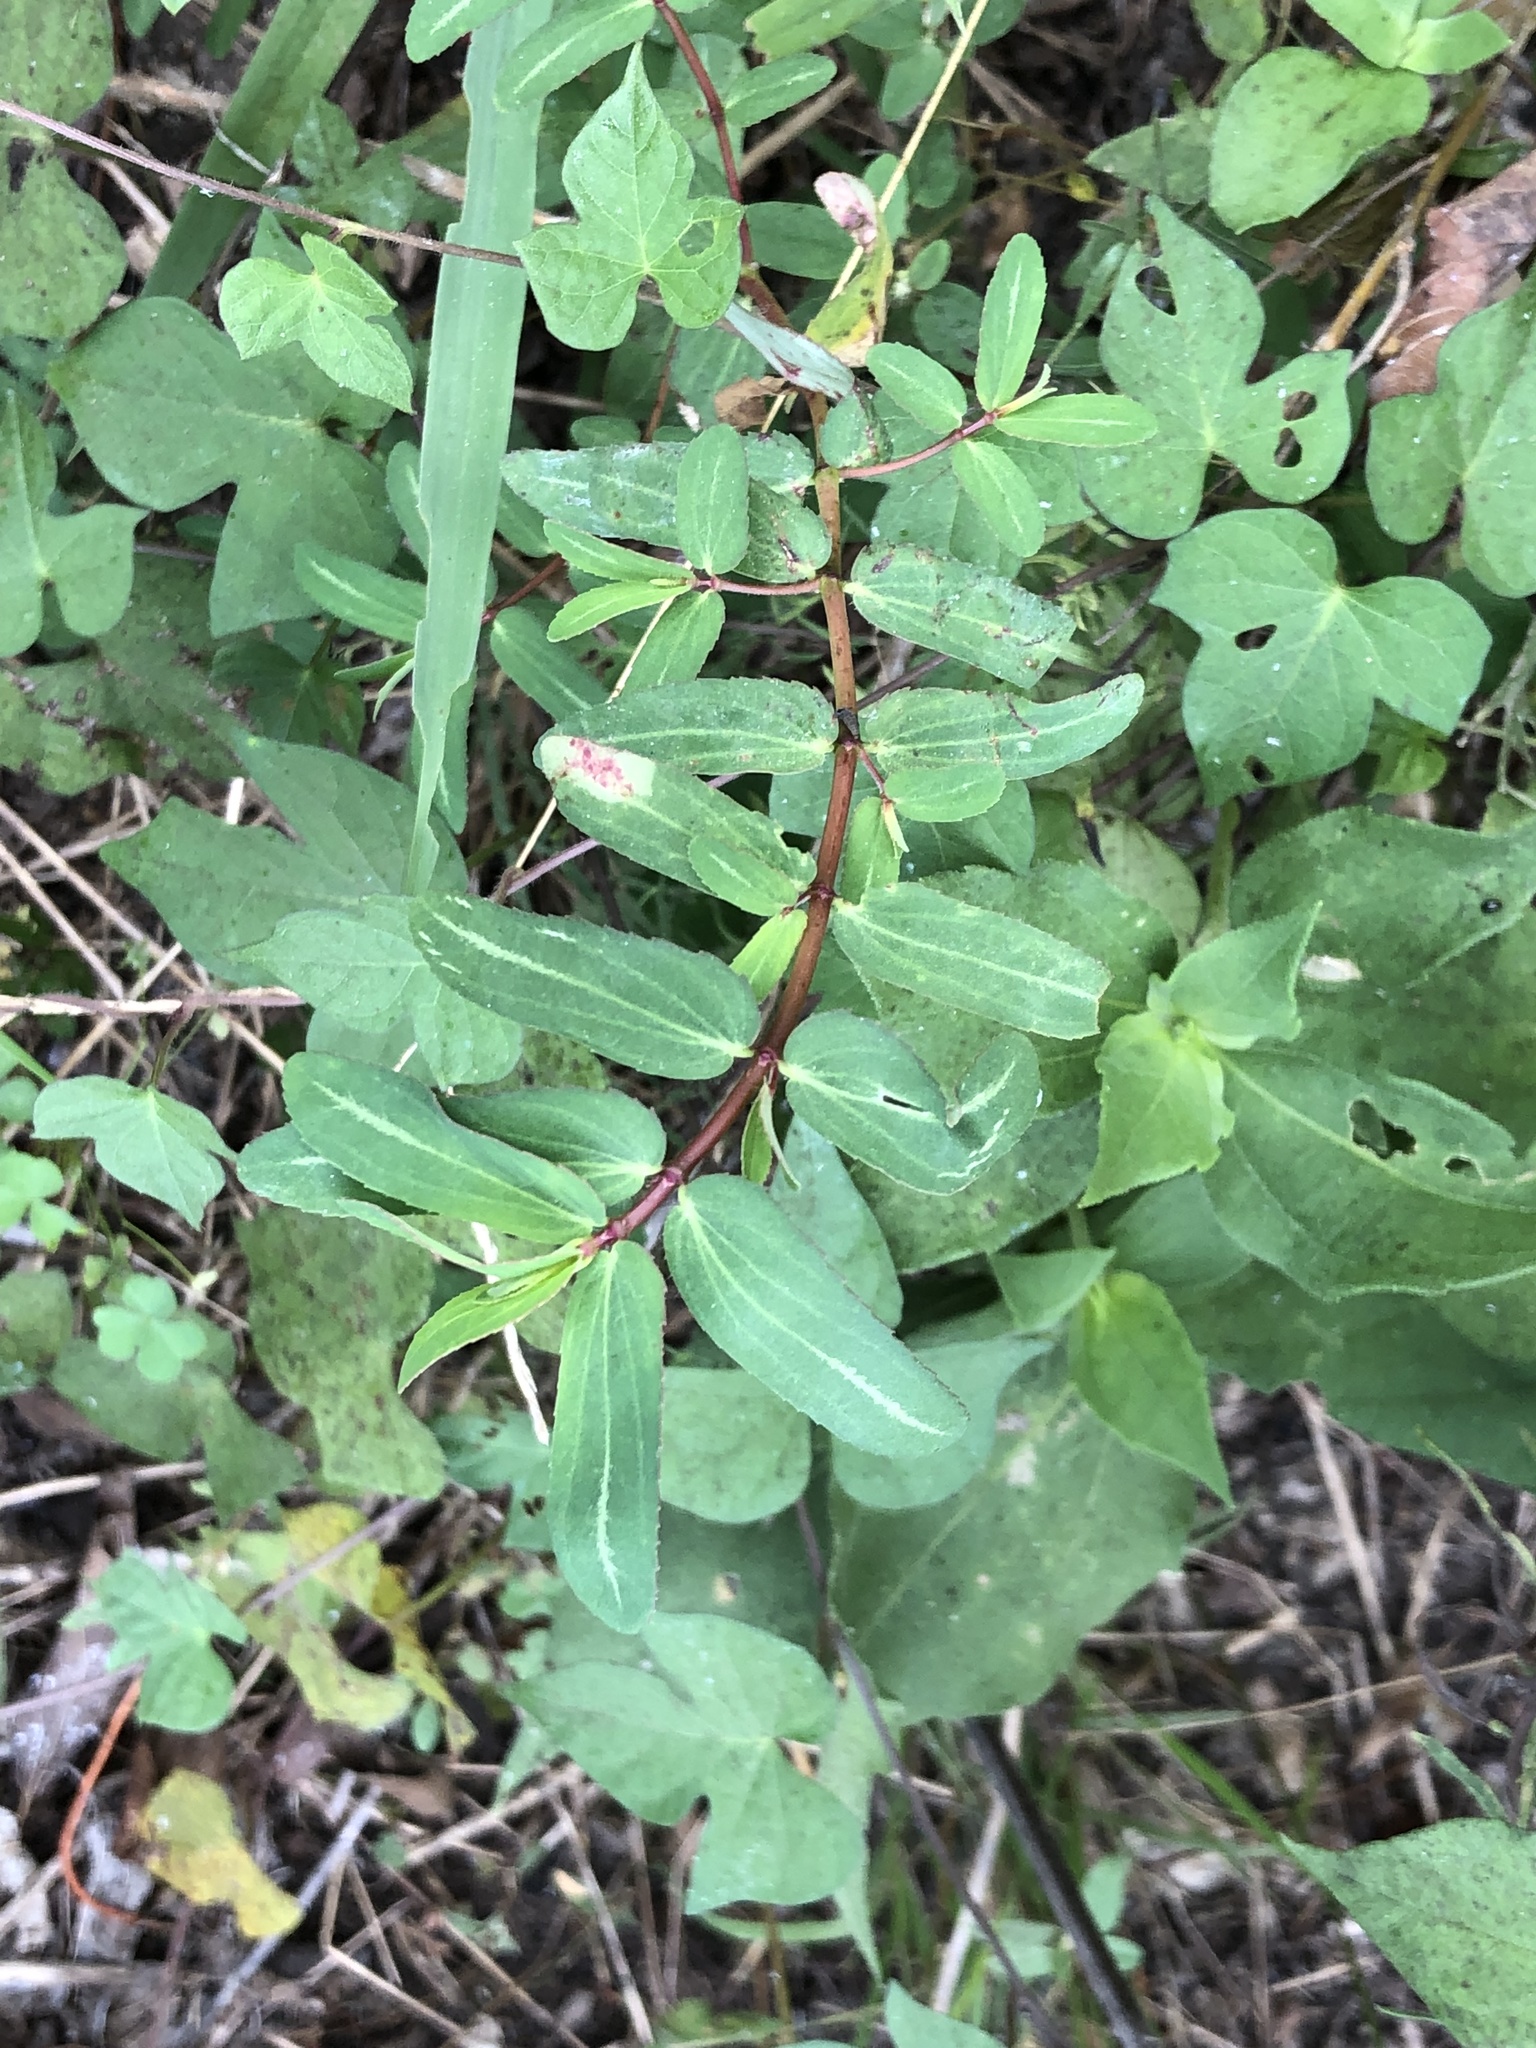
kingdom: Plantae
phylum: Tracheophyta
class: Magnoliopsida
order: Malpighiales
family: Euphorbiaceae
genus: Euphorbia
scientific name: Euphorbia nutans
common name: Eyebane
